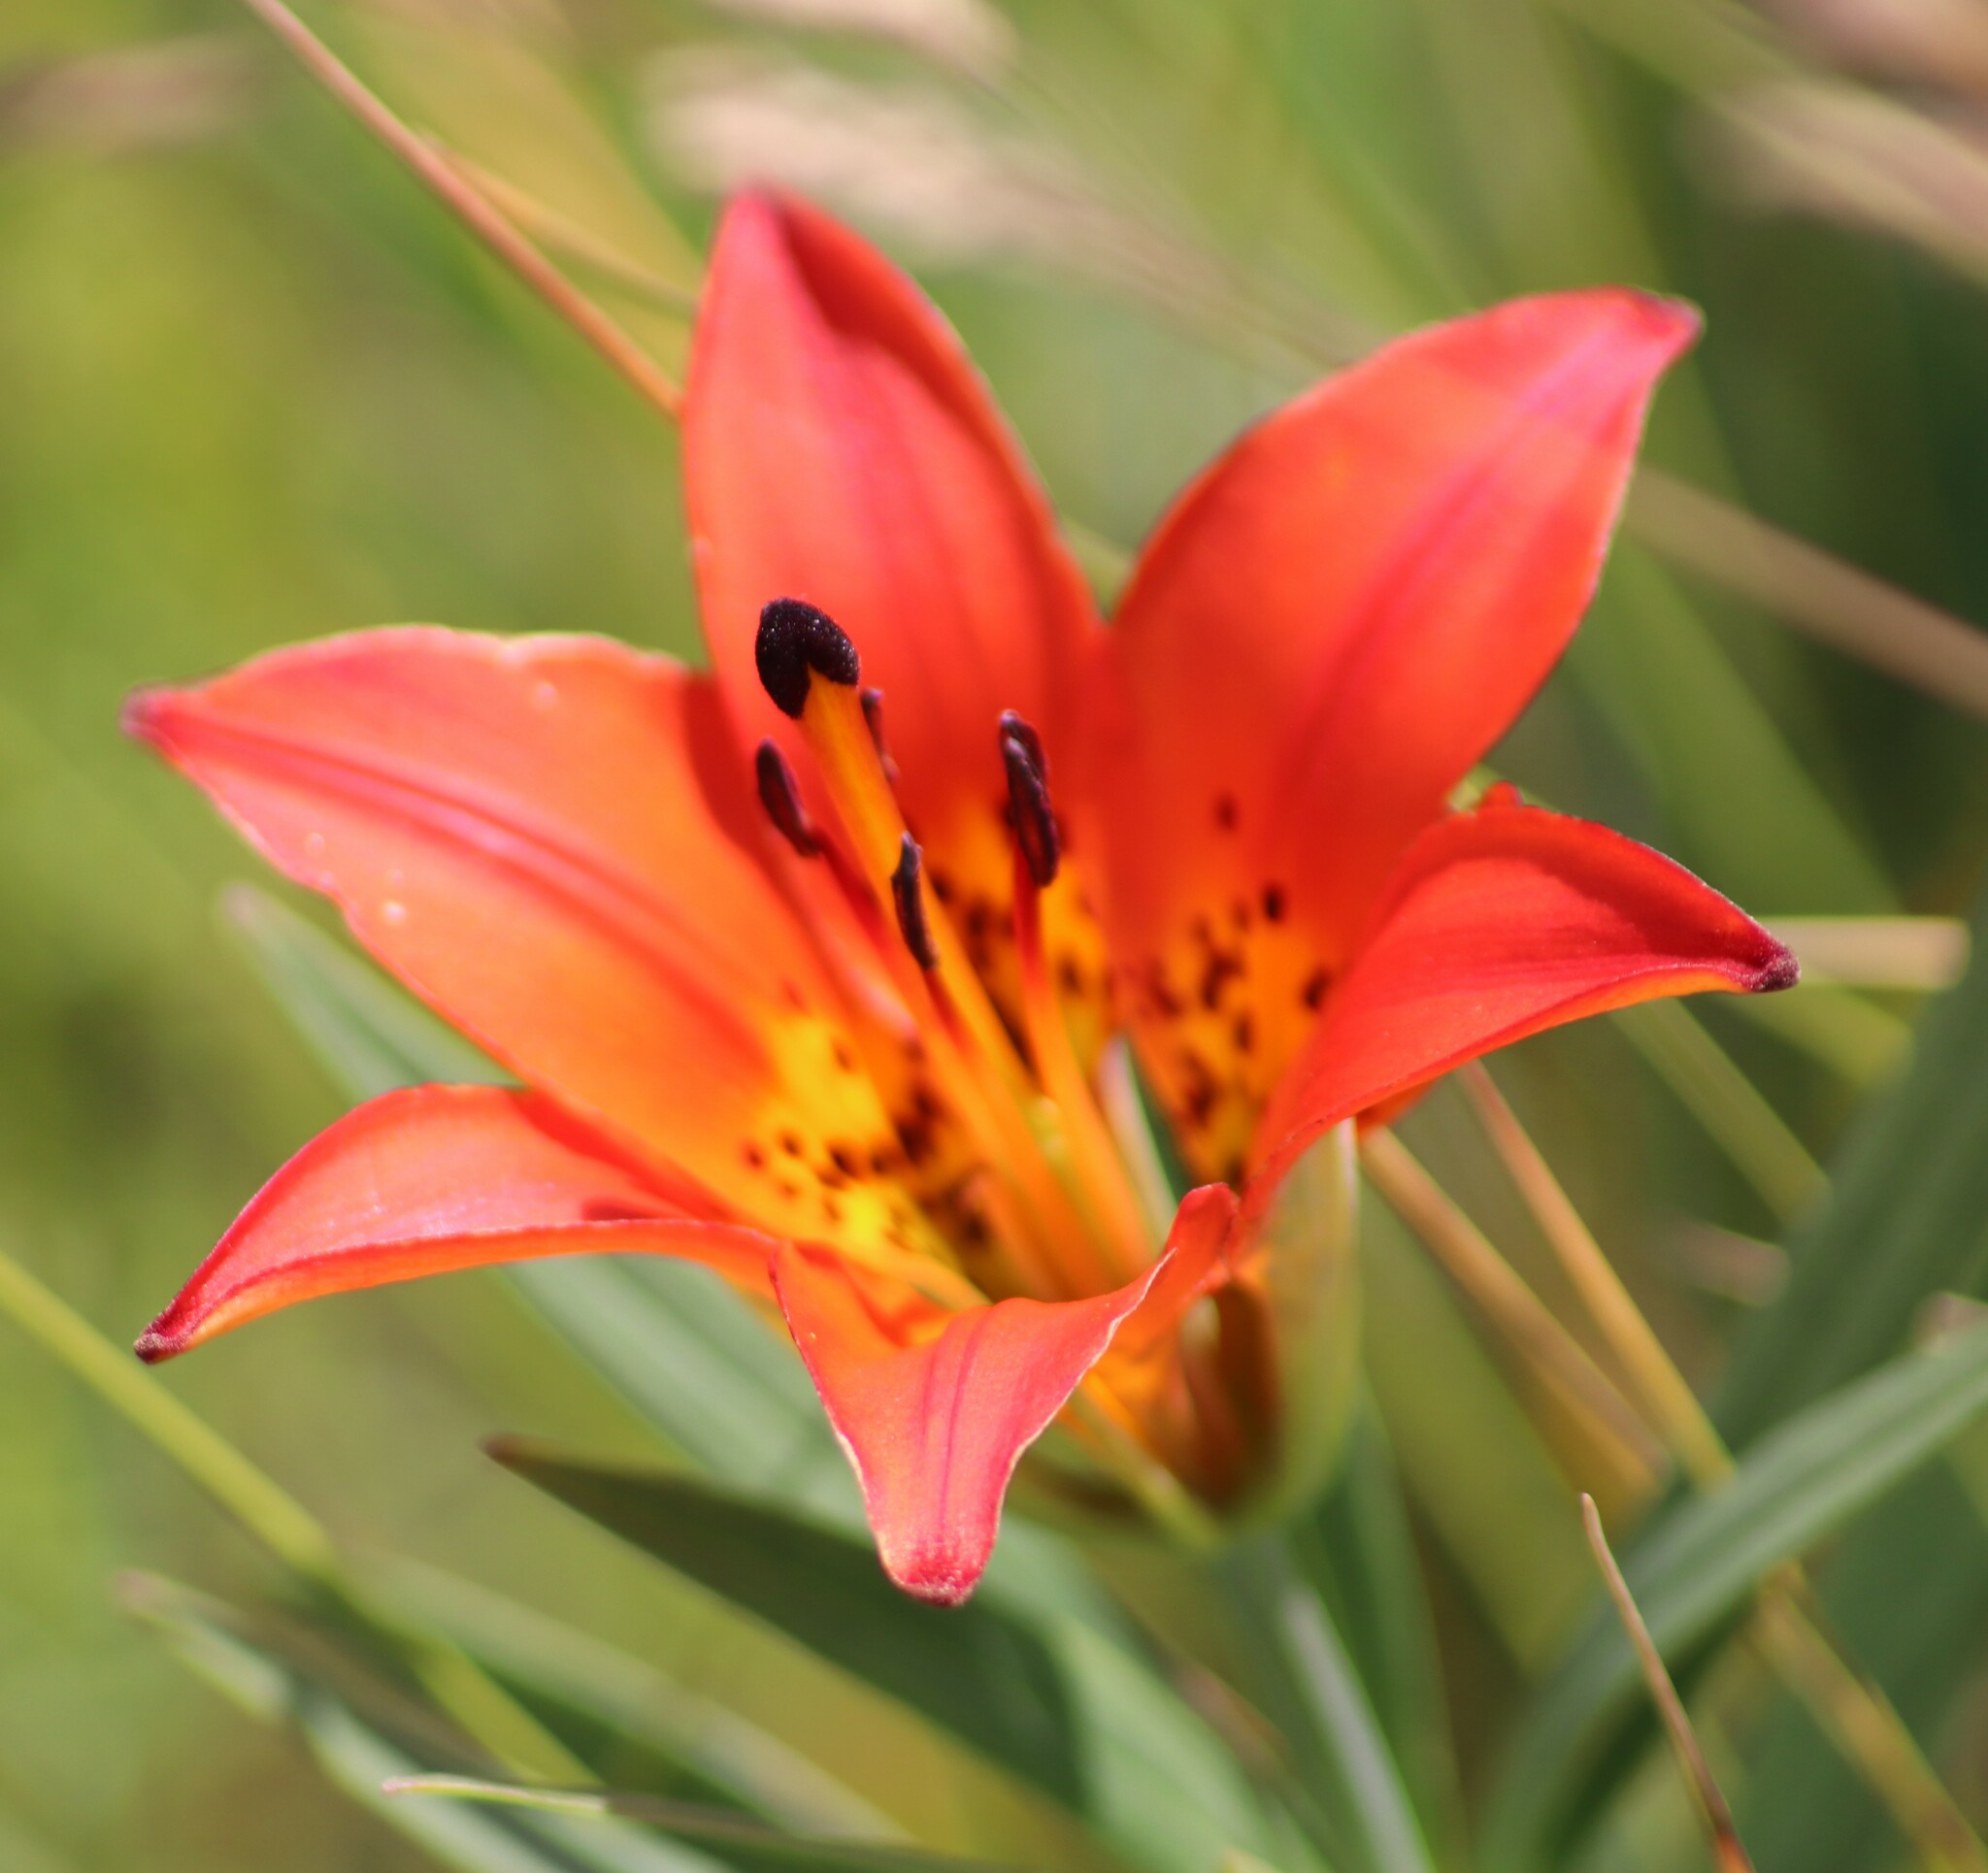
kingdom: Plantae
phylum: Tracheophyta
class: Liliopsida
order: Liliales
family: Liliaceae
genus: Lilium
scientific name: Lilium philadelphicum
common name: Red lily
